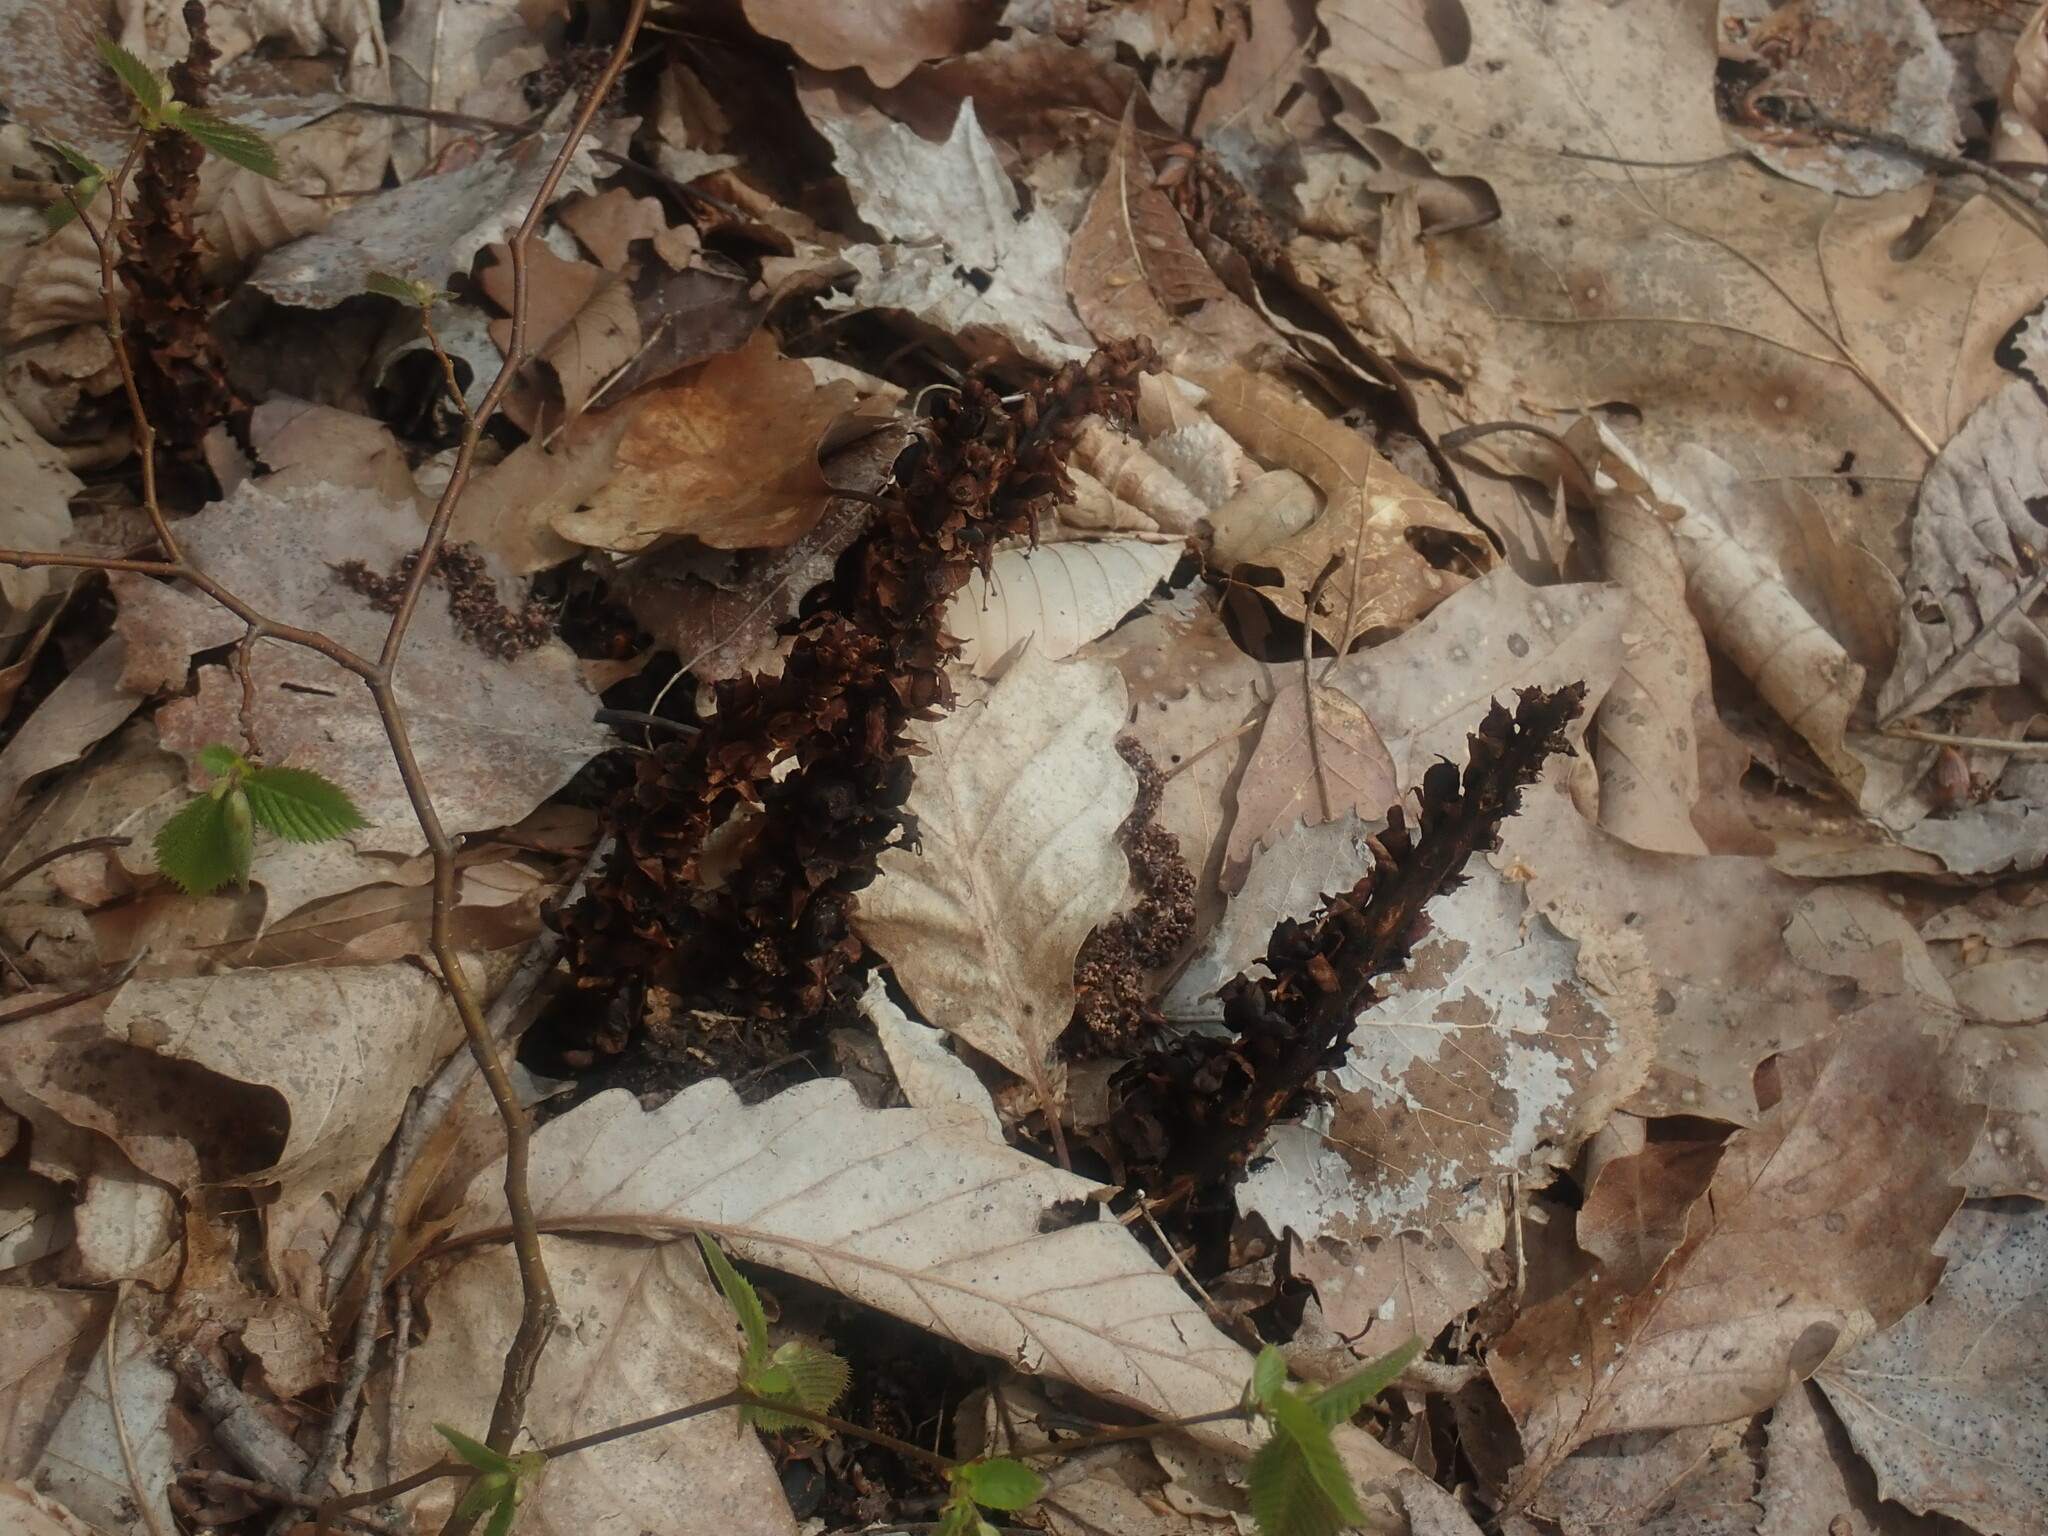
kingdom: Plantae
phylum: Tracheophyta
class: Magnoliopsida
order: Lamiales
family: Orobanchaceae
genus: Conopholis
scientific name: Conopholis americana
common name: American cancer-root
